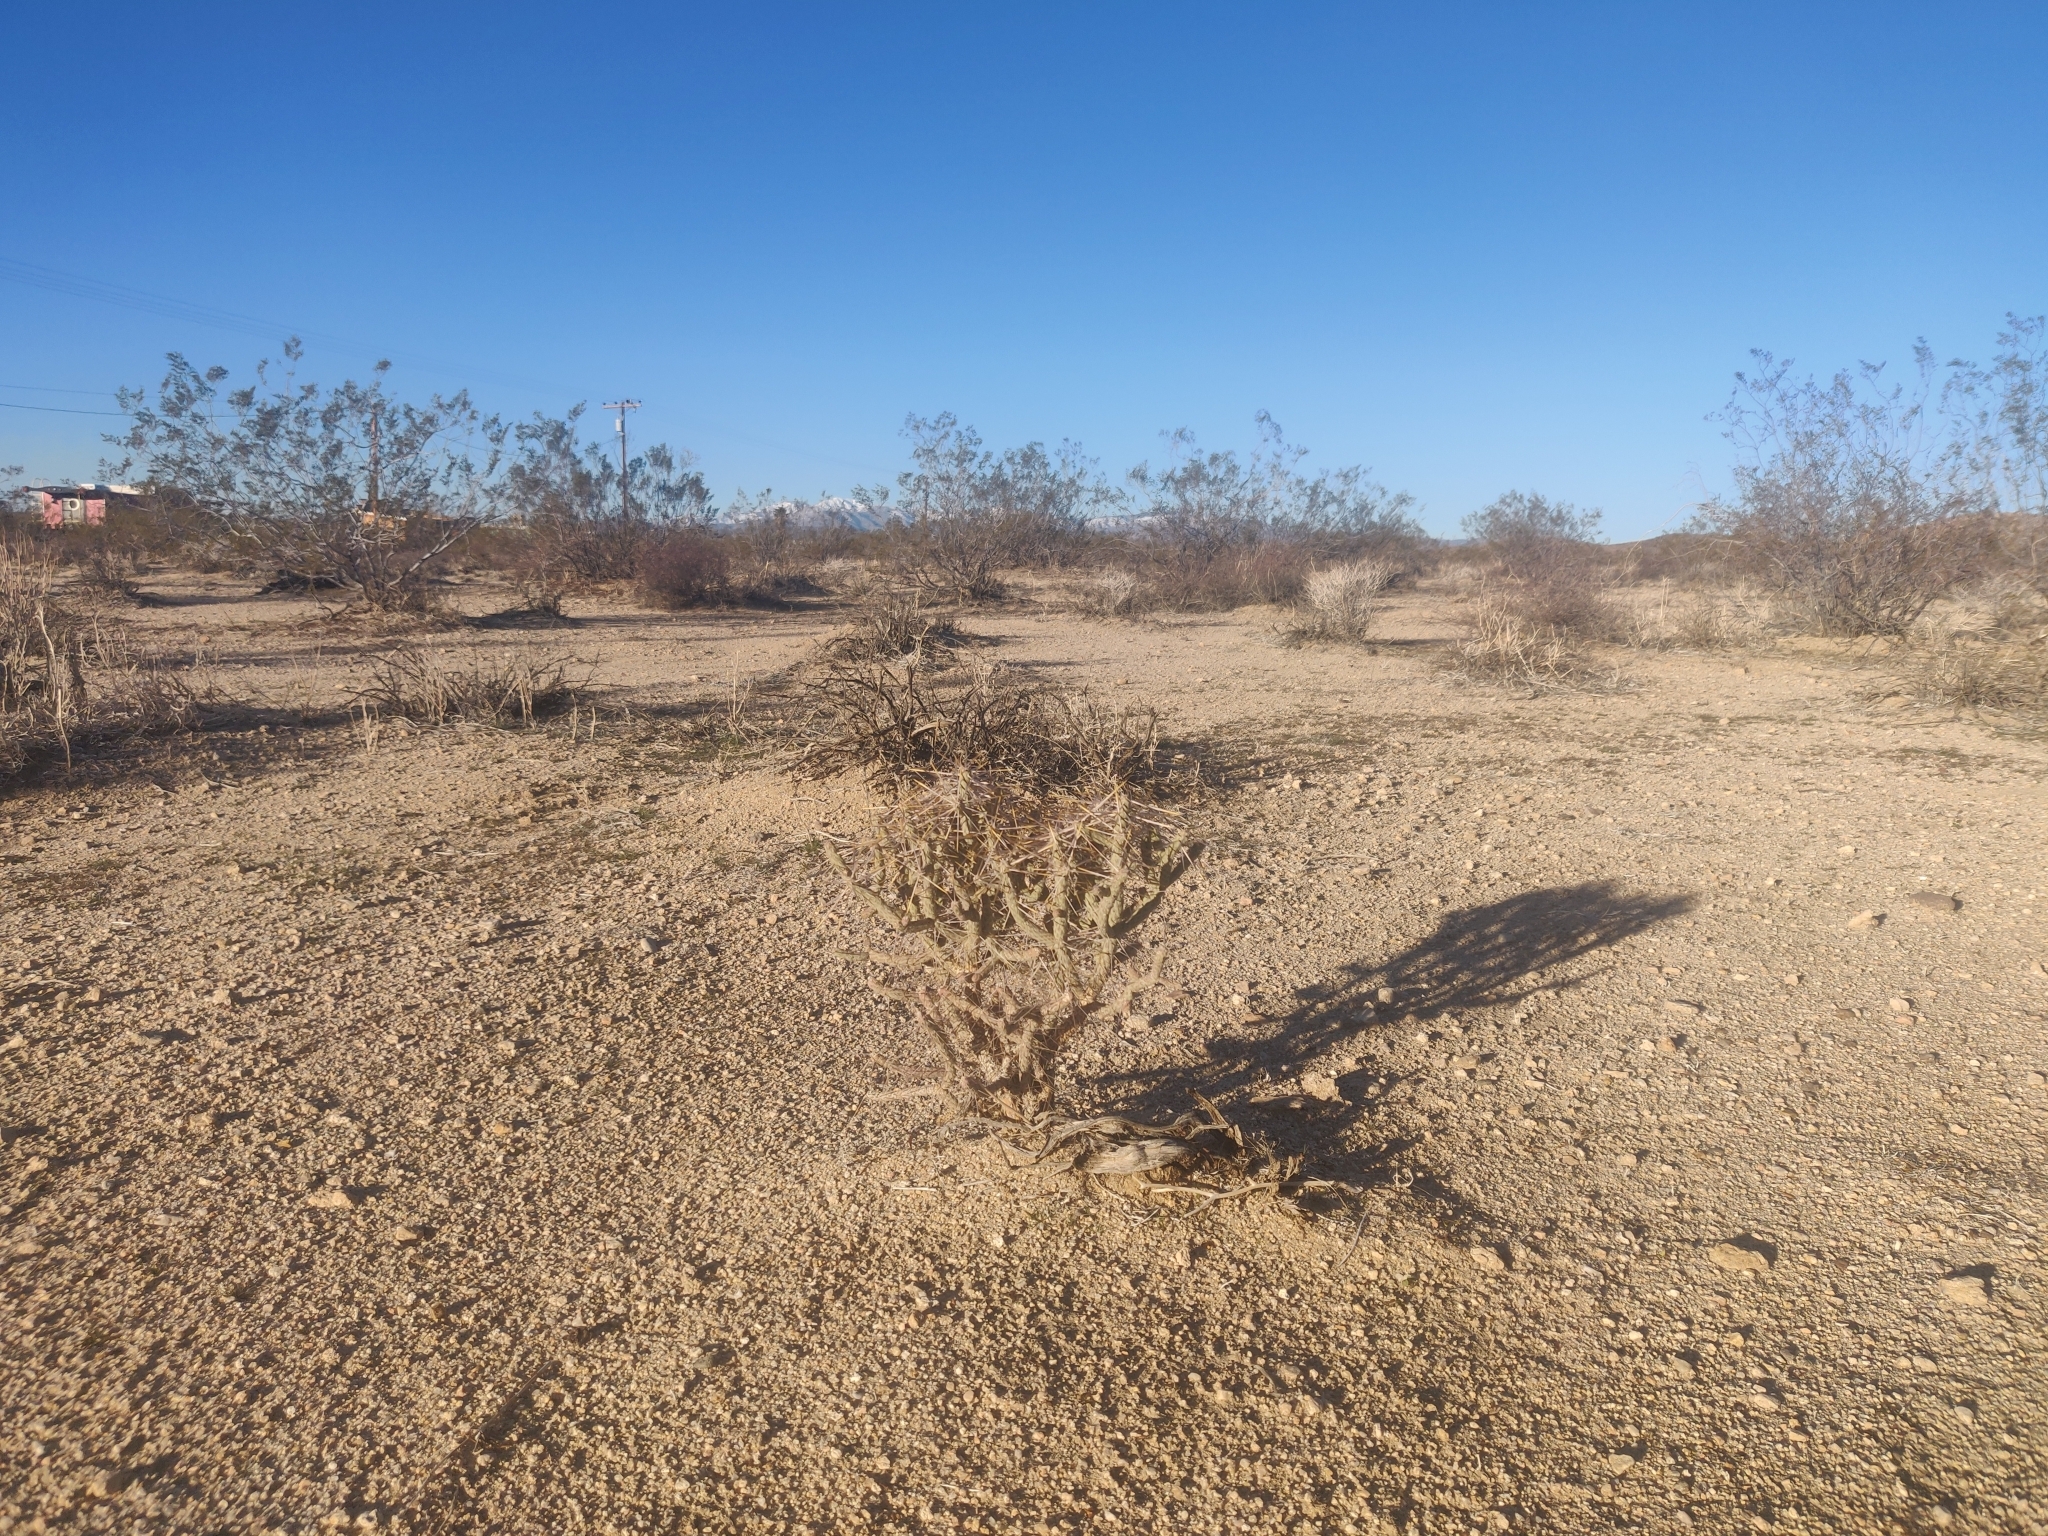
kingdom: Plantae
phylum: Tracheophyta
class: Magnoliopsida
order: Caryophyllales
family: Cactaceae
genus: Cylindropuntia
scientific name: Cylindropuntia ramosissima
